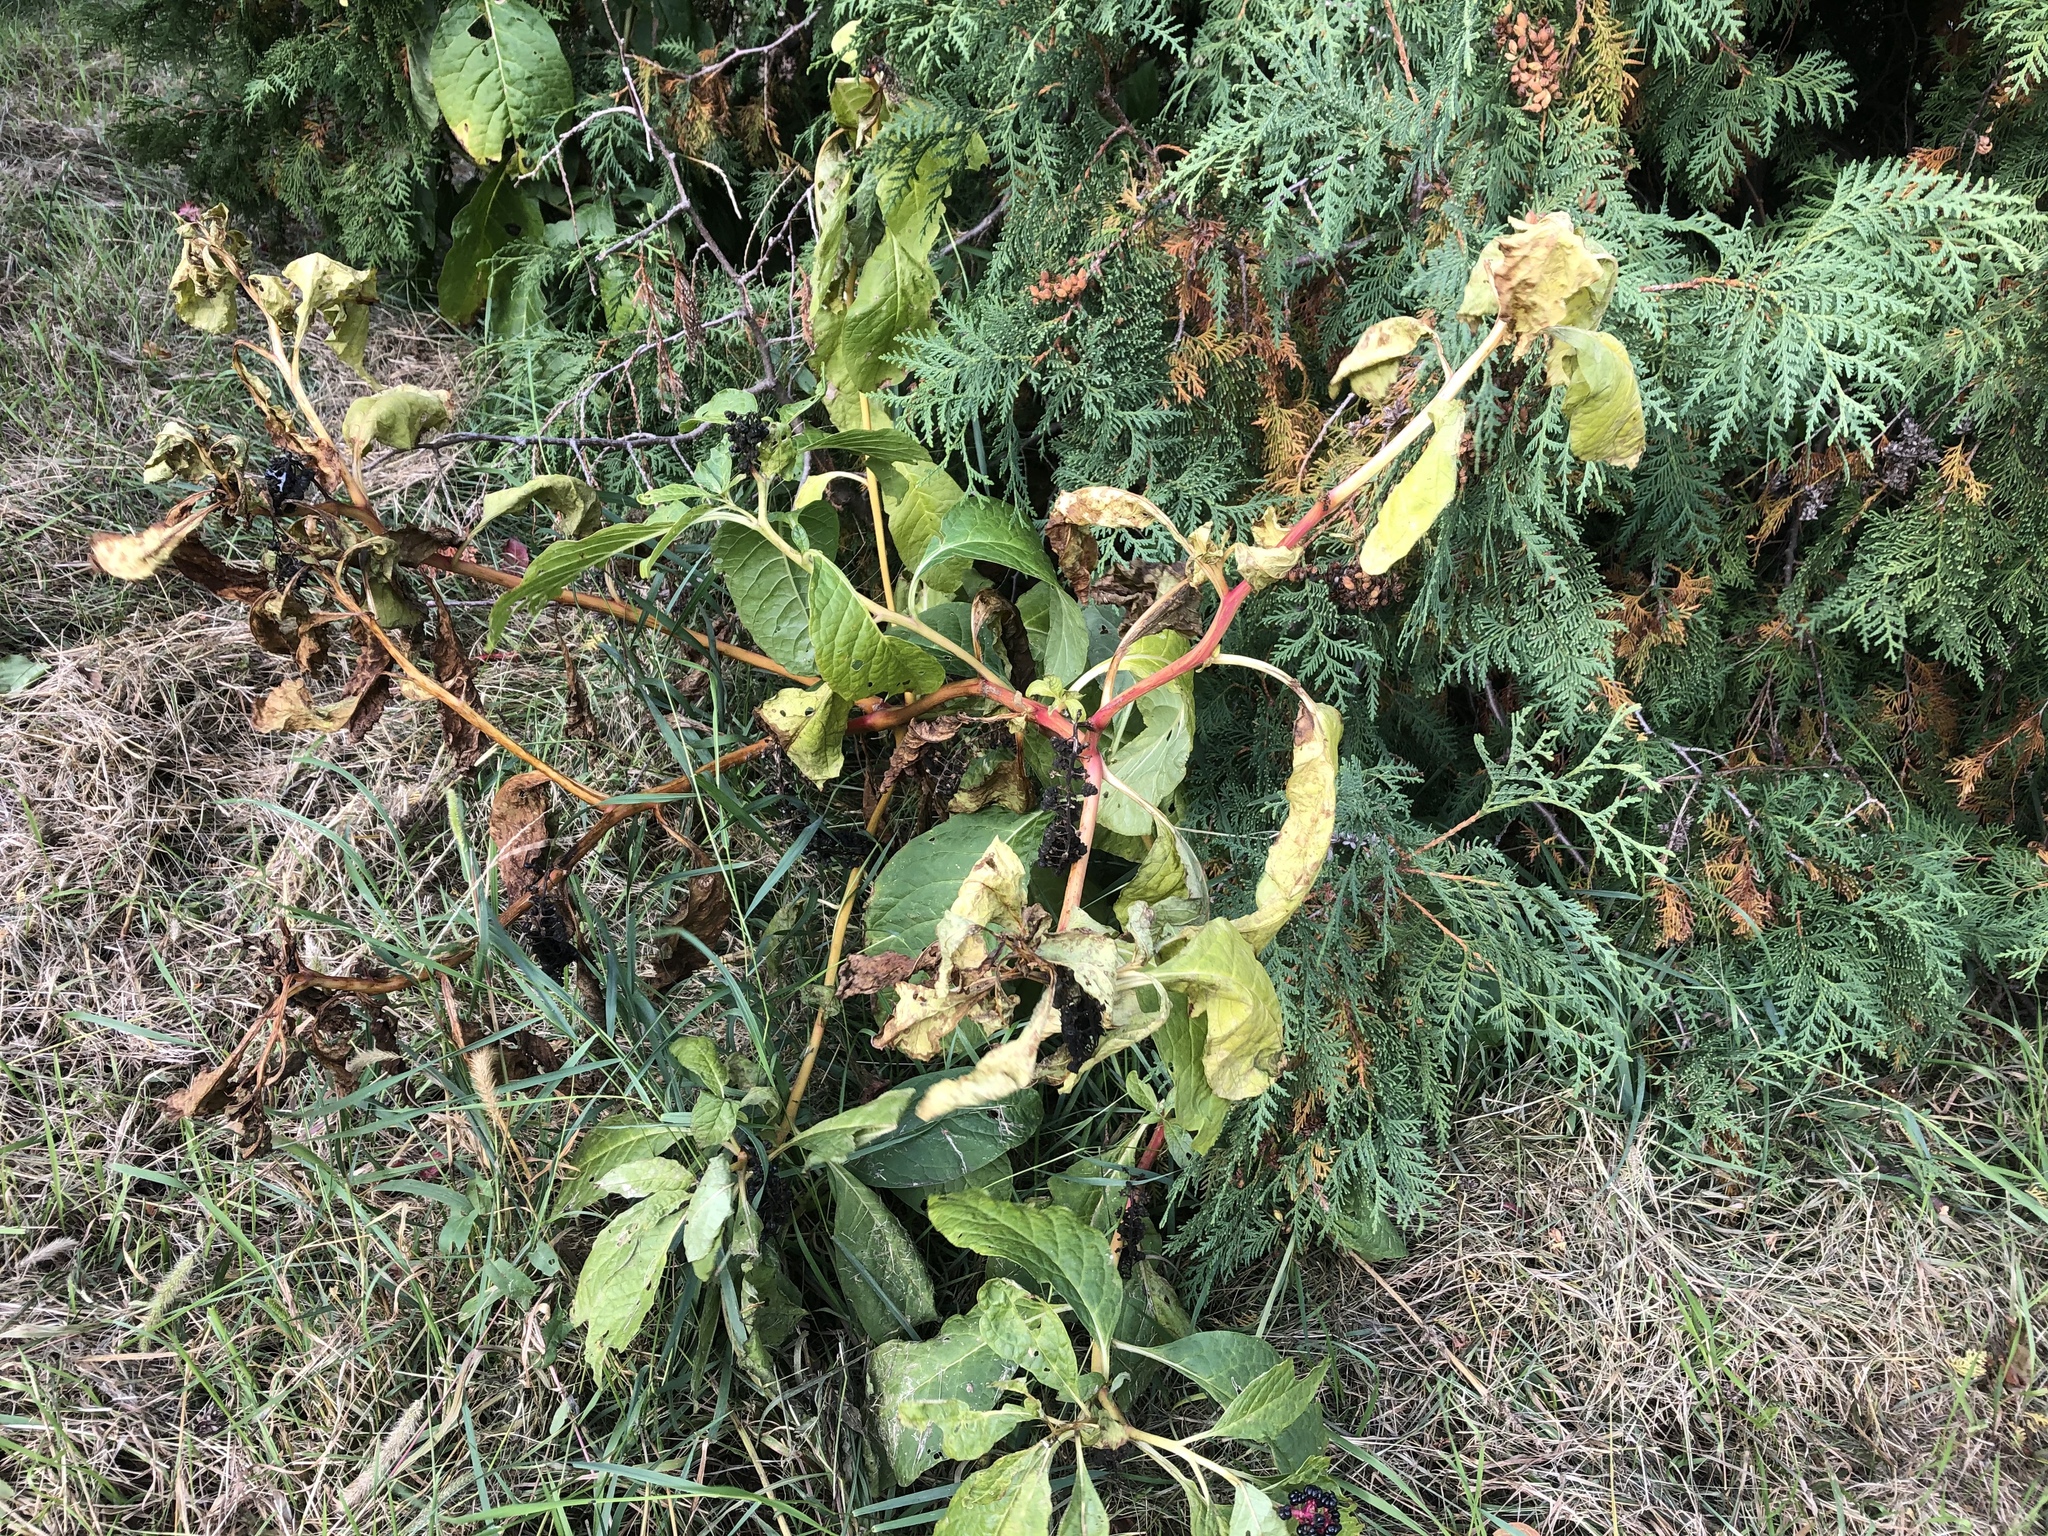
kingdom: Plantae
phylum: Tracheophyta
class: Magnoliopsida
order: Caryophyllales
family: Phytolaccaceae
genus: Phytolacca
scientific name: Phytolacca acinosa
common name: Indian pokeweed
